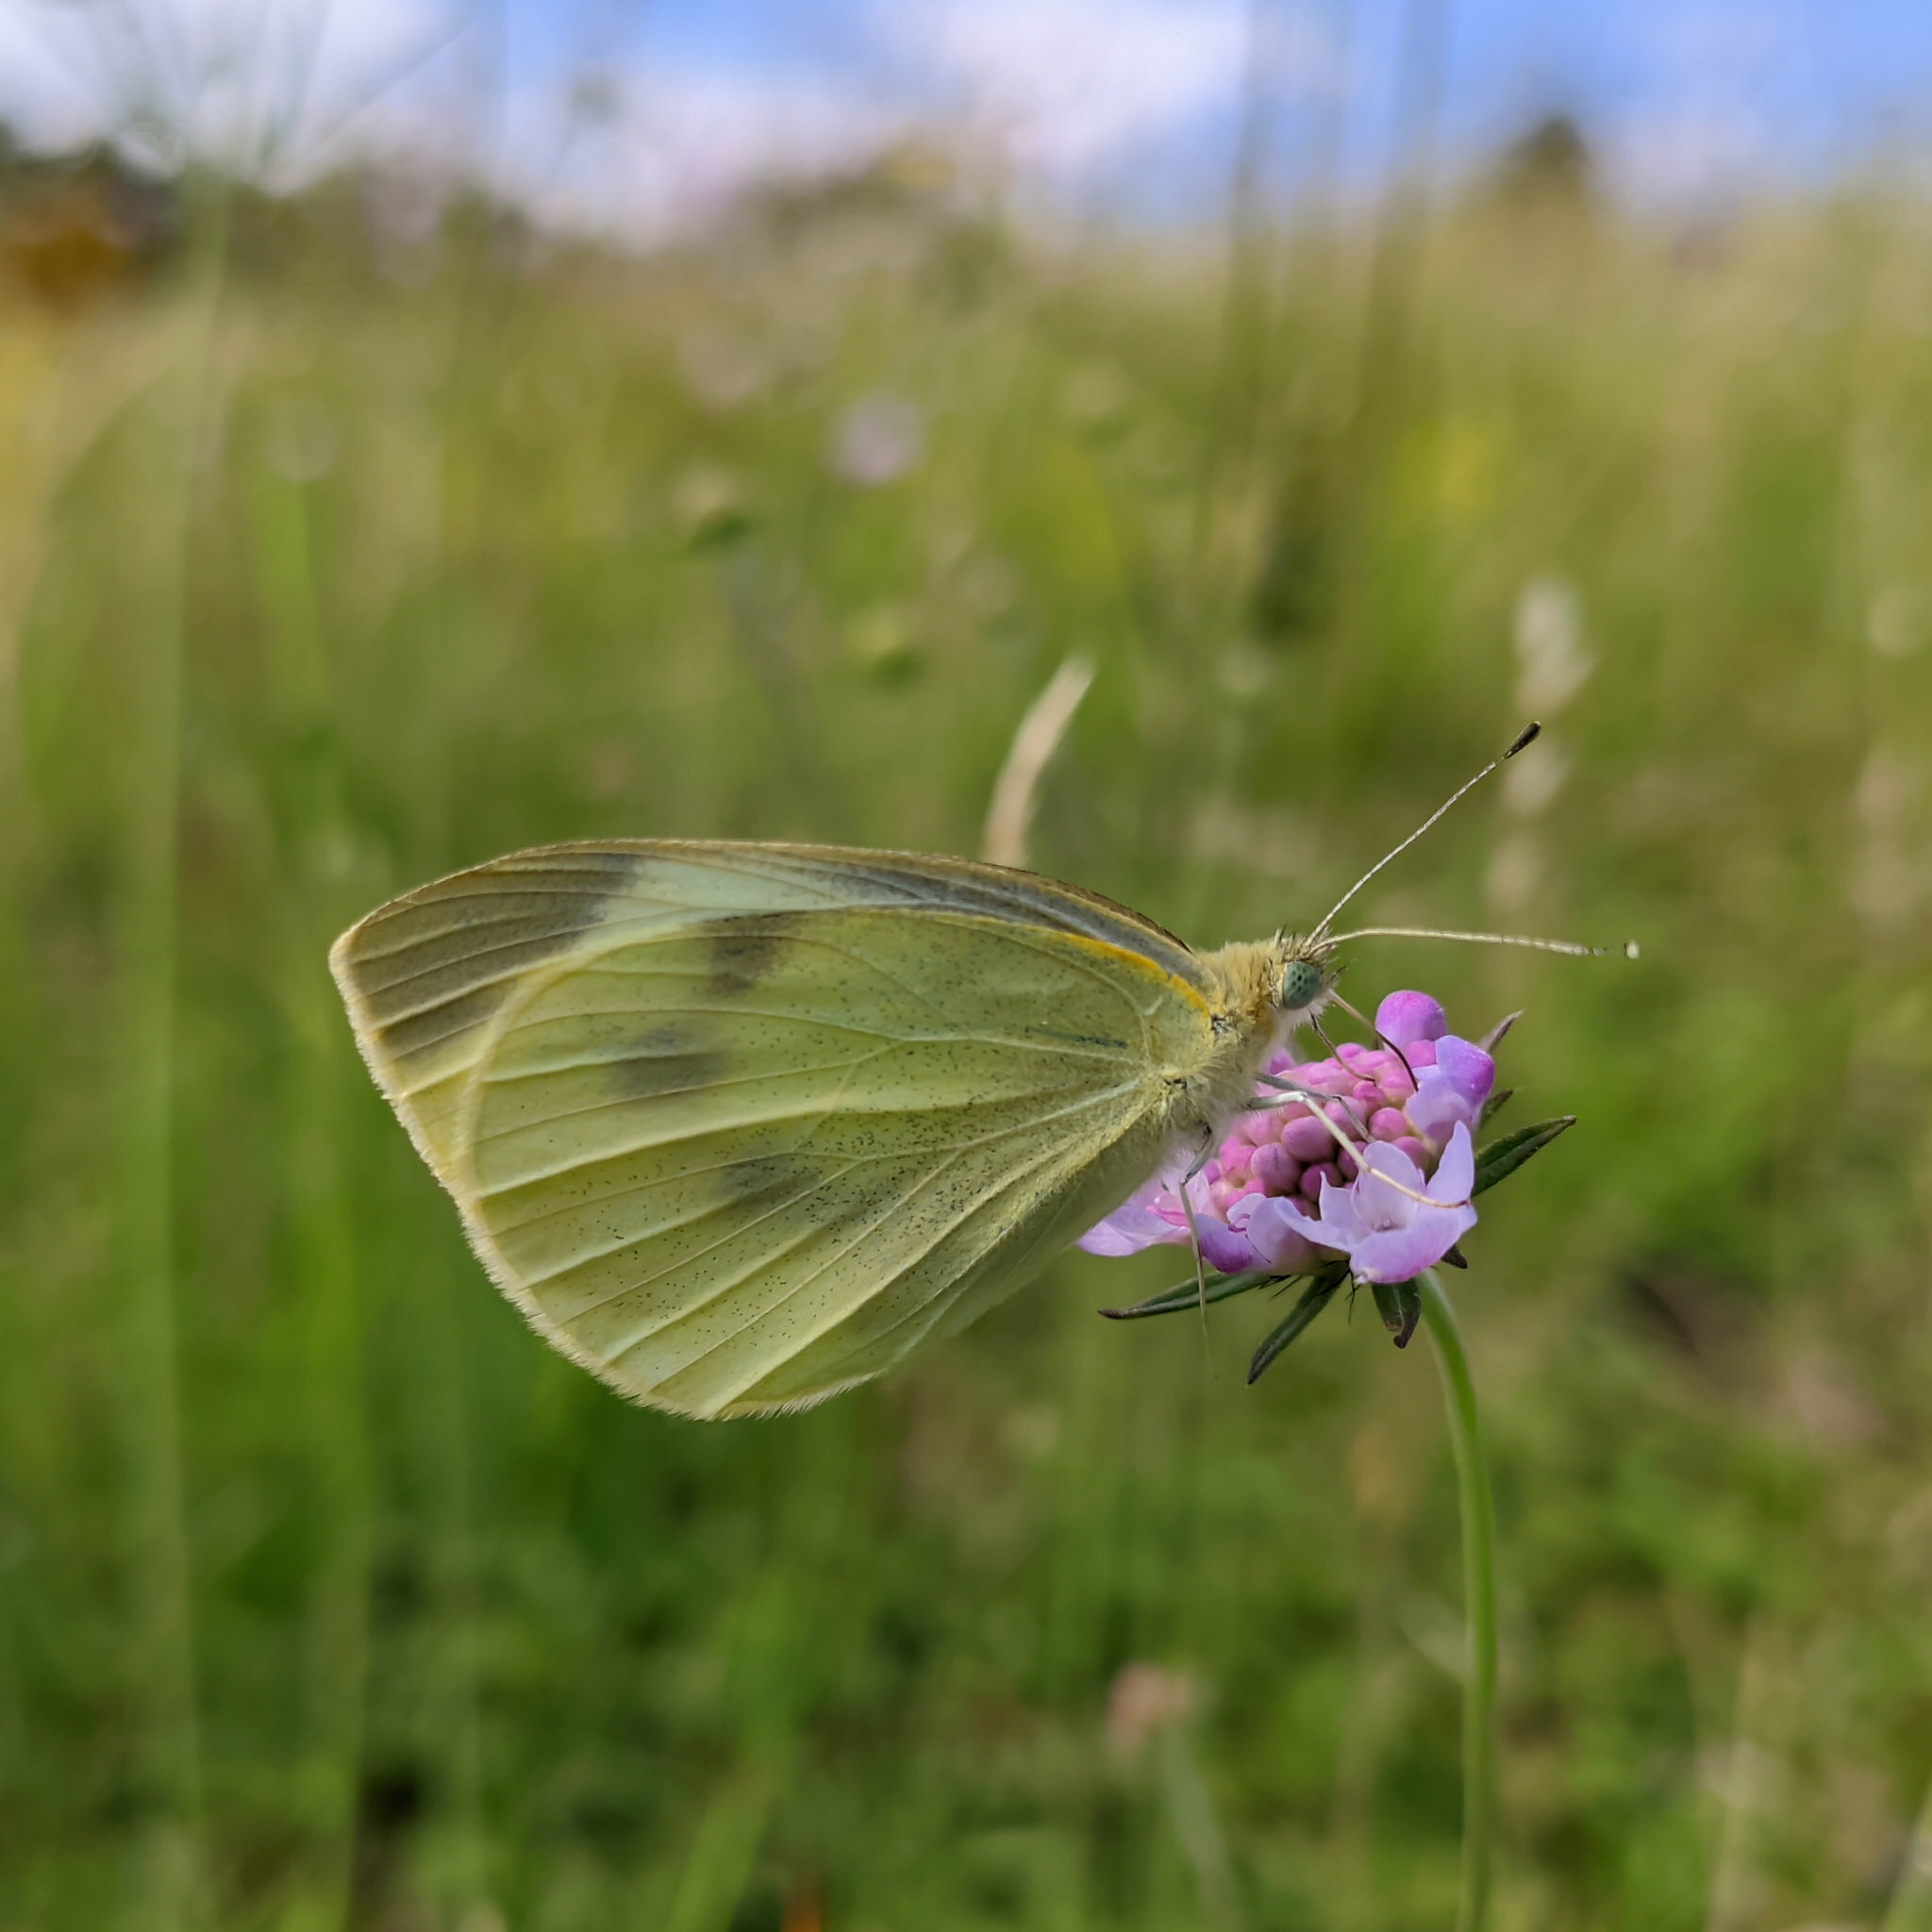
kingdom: Animalia
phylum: Arthropoda
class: Insecta
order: Lepidoptera
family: Pieridae
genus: Pieris
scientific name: Pieris rapae
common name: Small white
